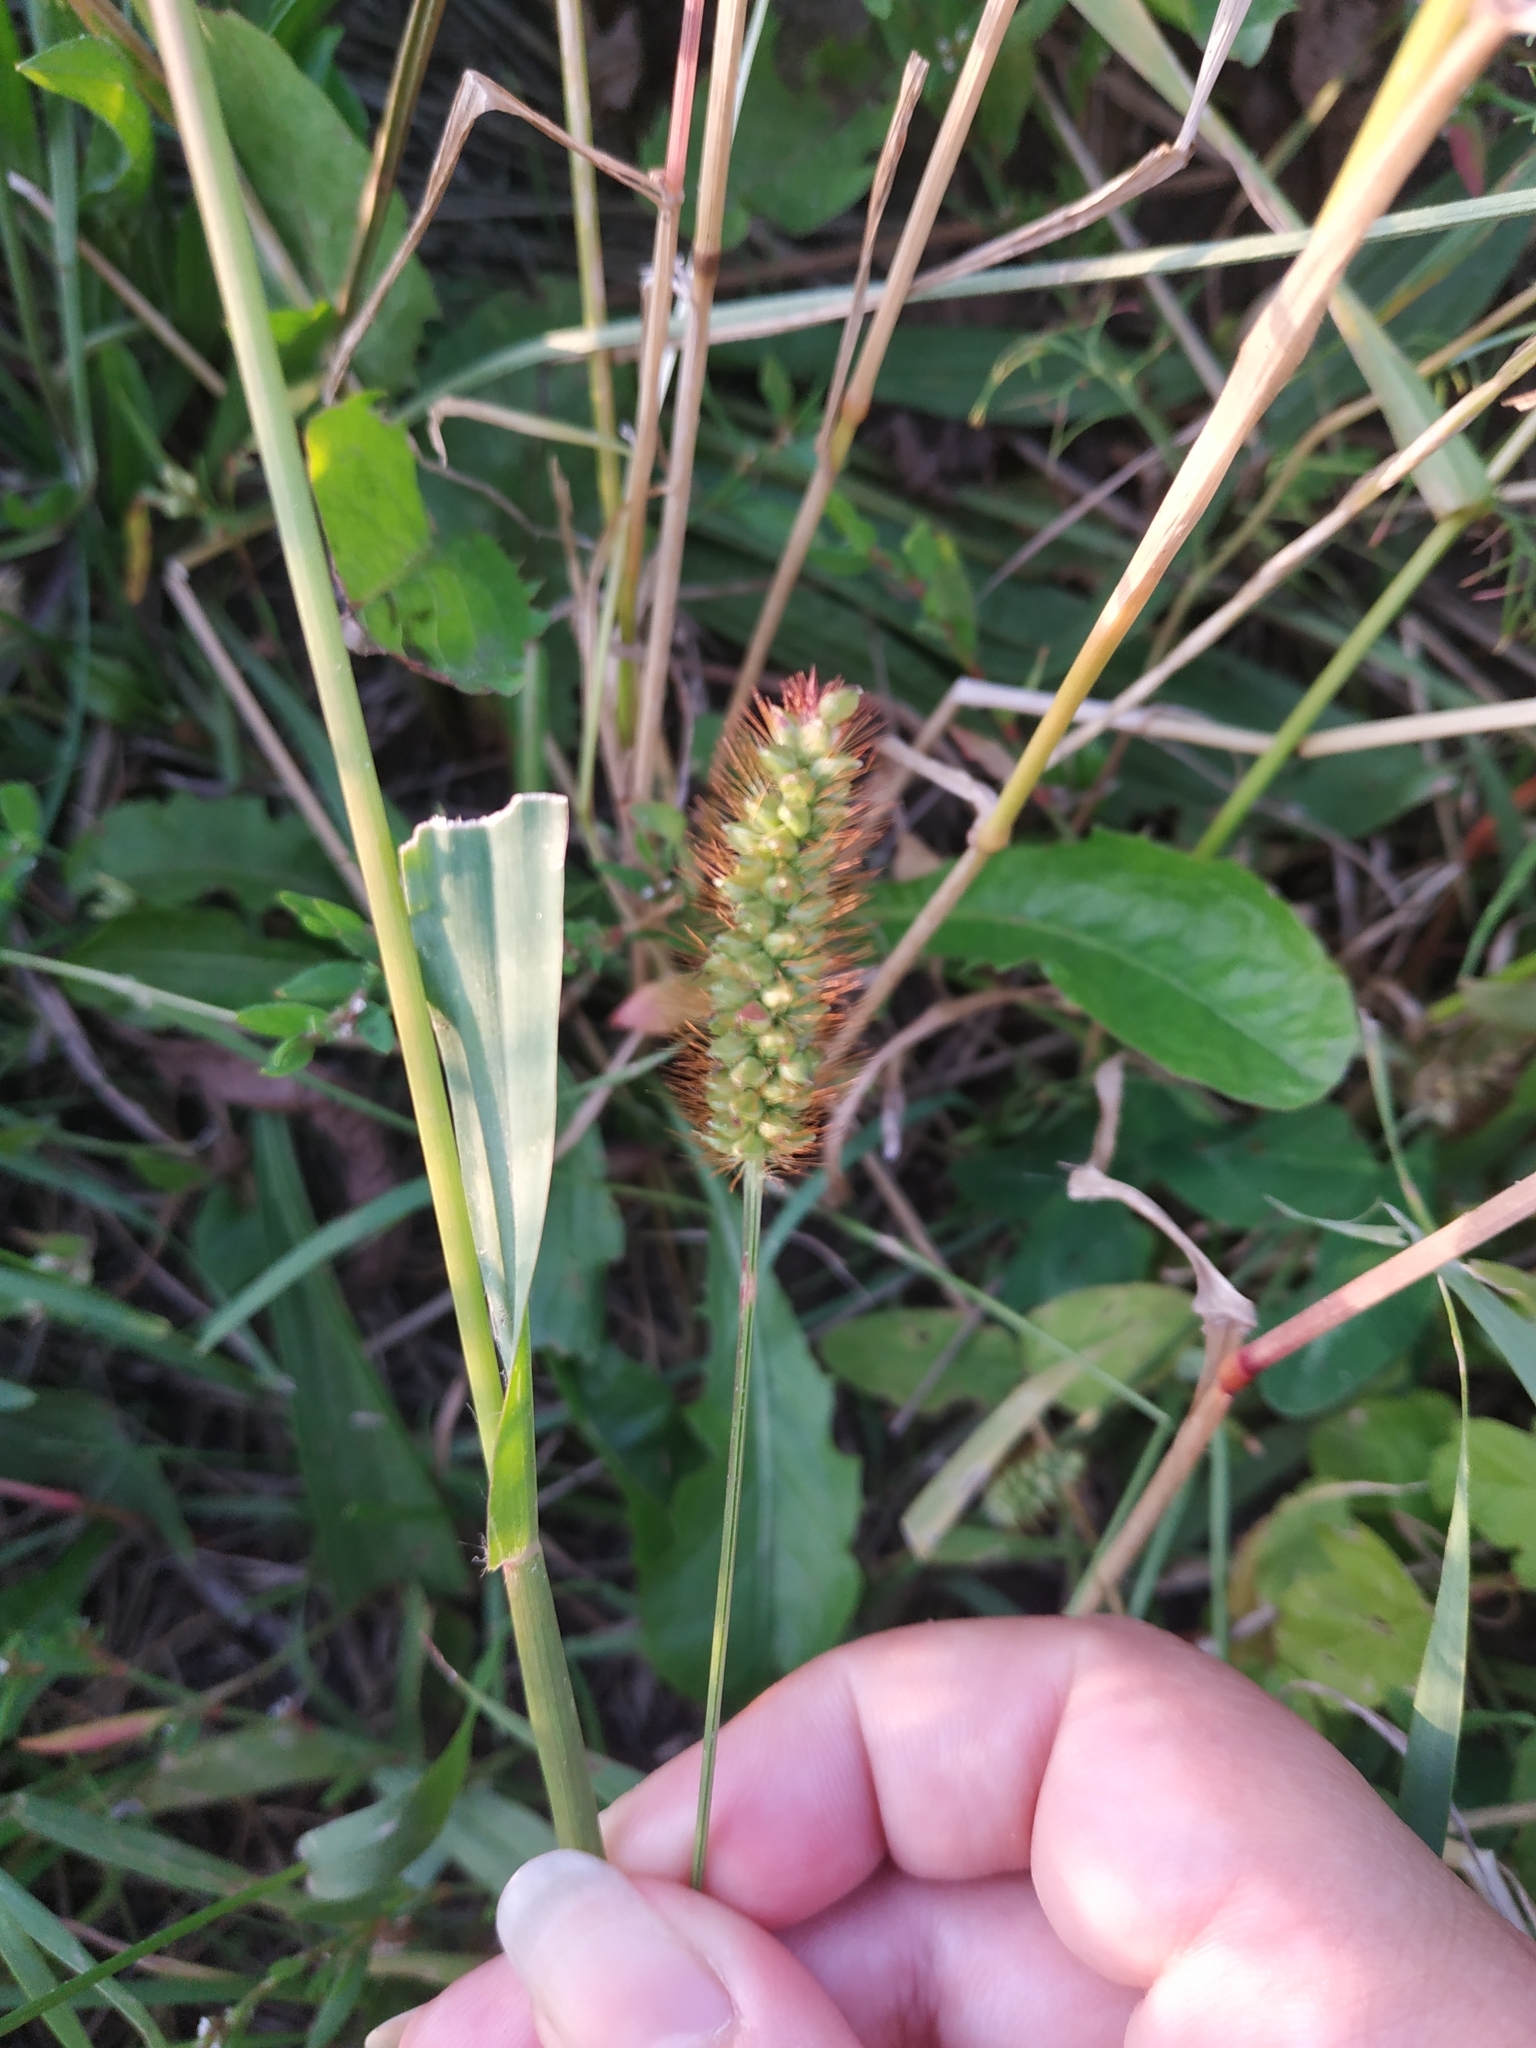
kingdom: Plantae
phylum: Tracheophyta
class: Liliopsida
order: Poales
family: Poaceae
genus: Setaria
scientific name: Setaria pumila
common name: Yellow bristle-grass
